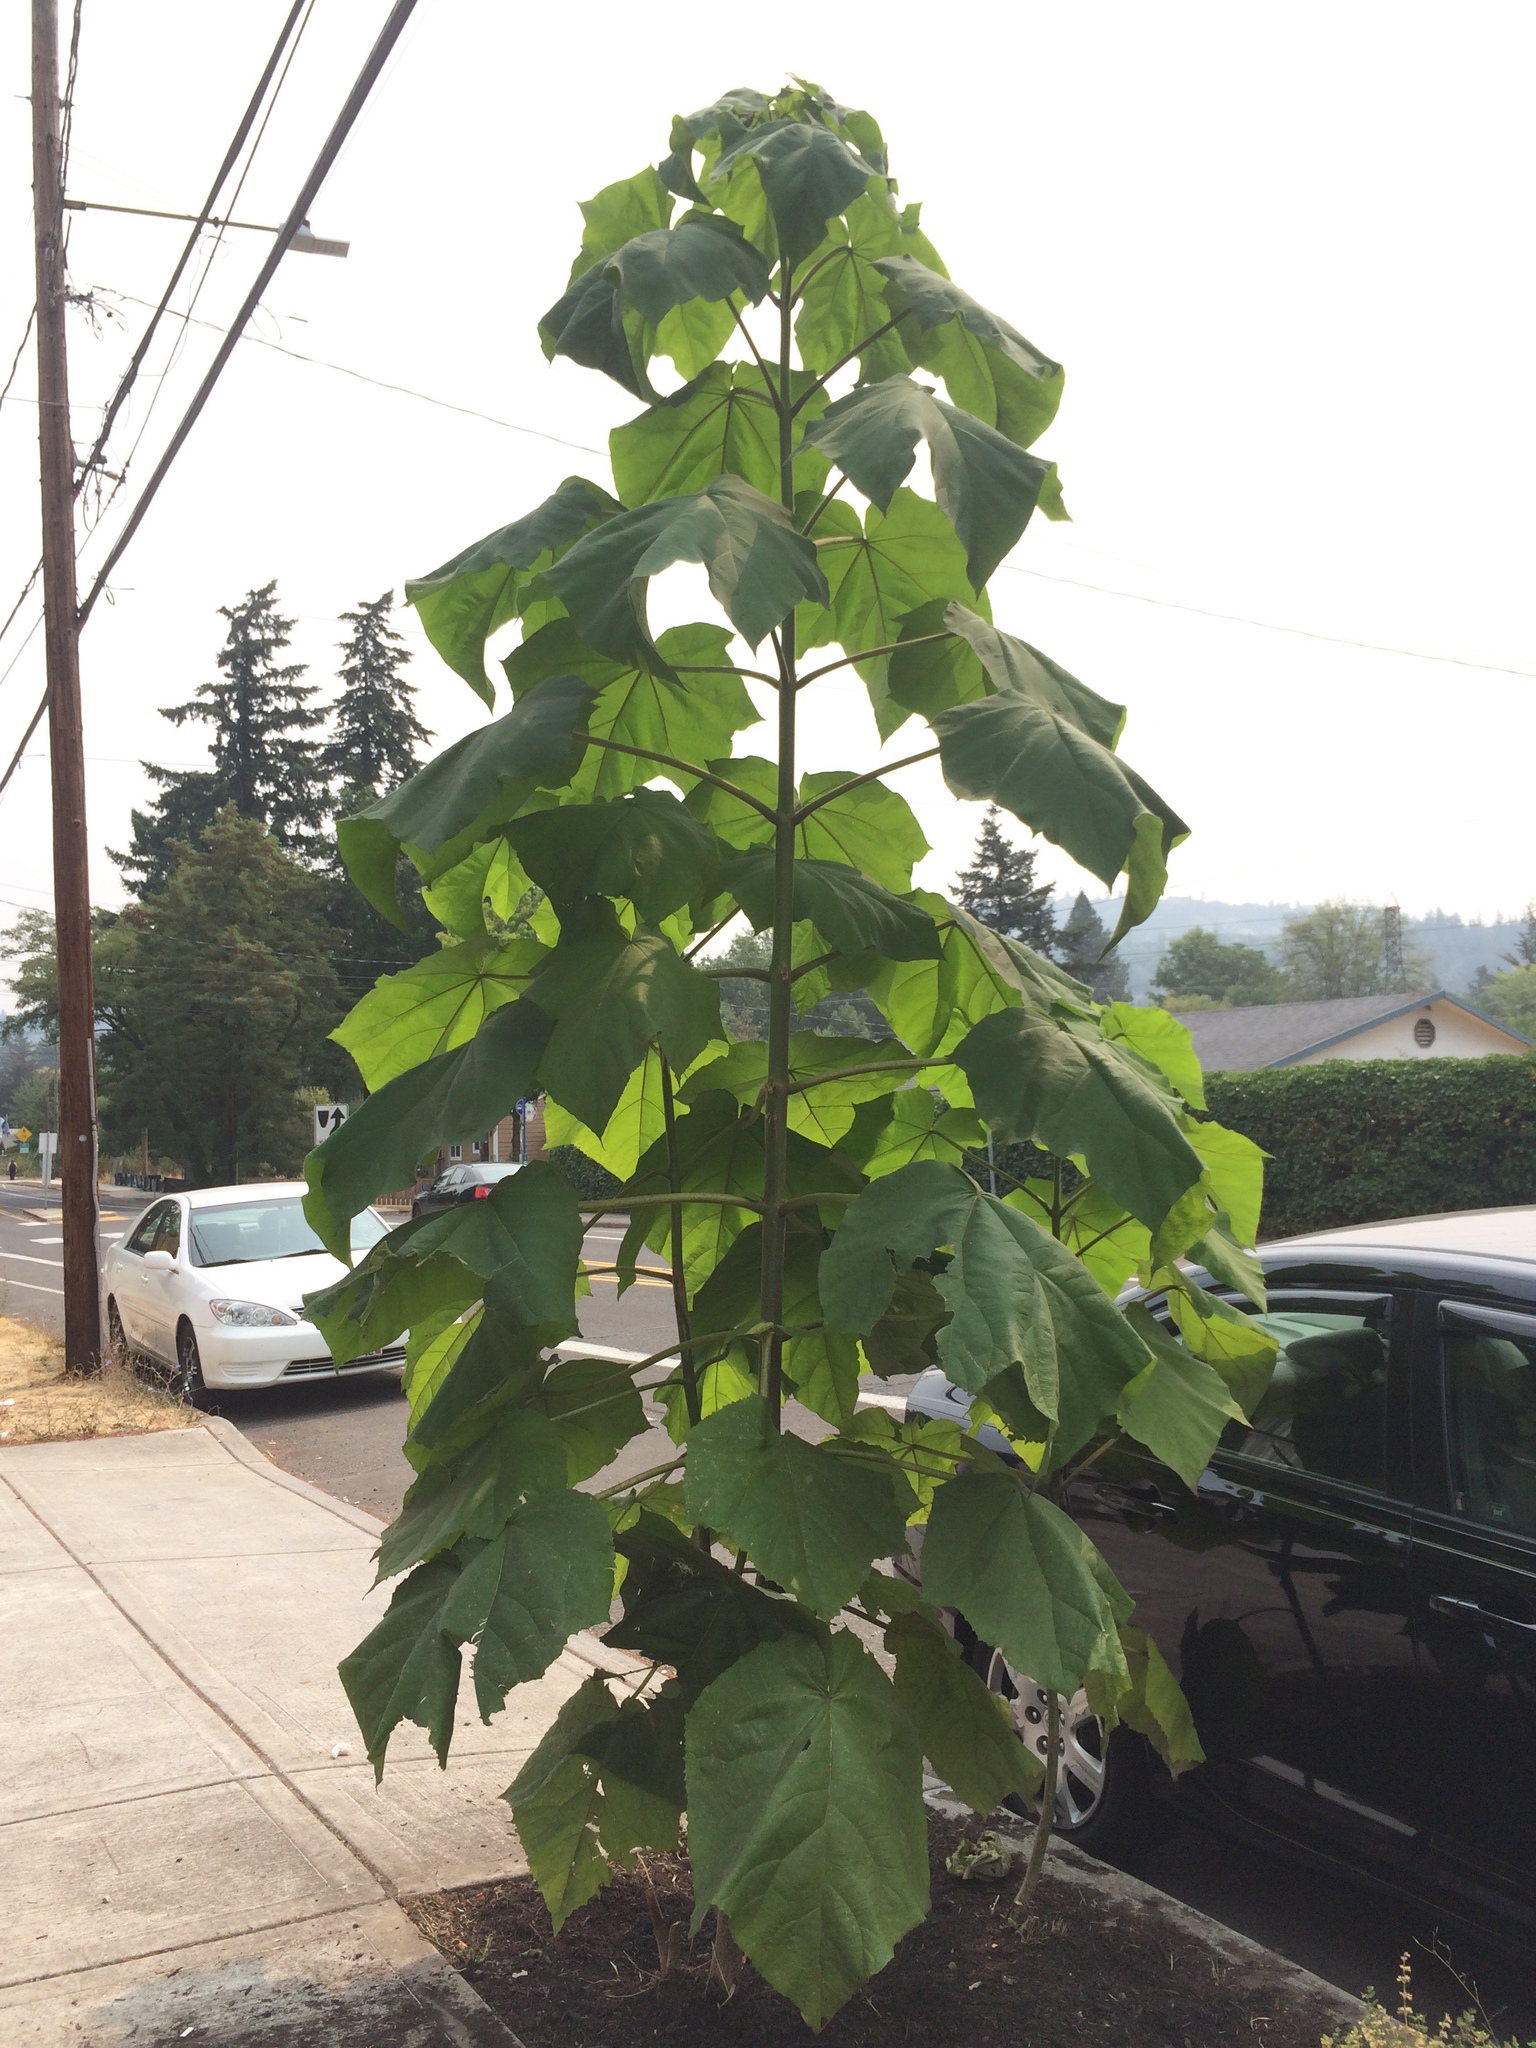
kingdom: Plantae
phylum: Tracheophyta
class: Magnoliopsida
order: Lamiales
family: Paulowniaceae
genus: Paulownia
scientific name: Paulownia tomentosa
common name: Foxglove-tree
